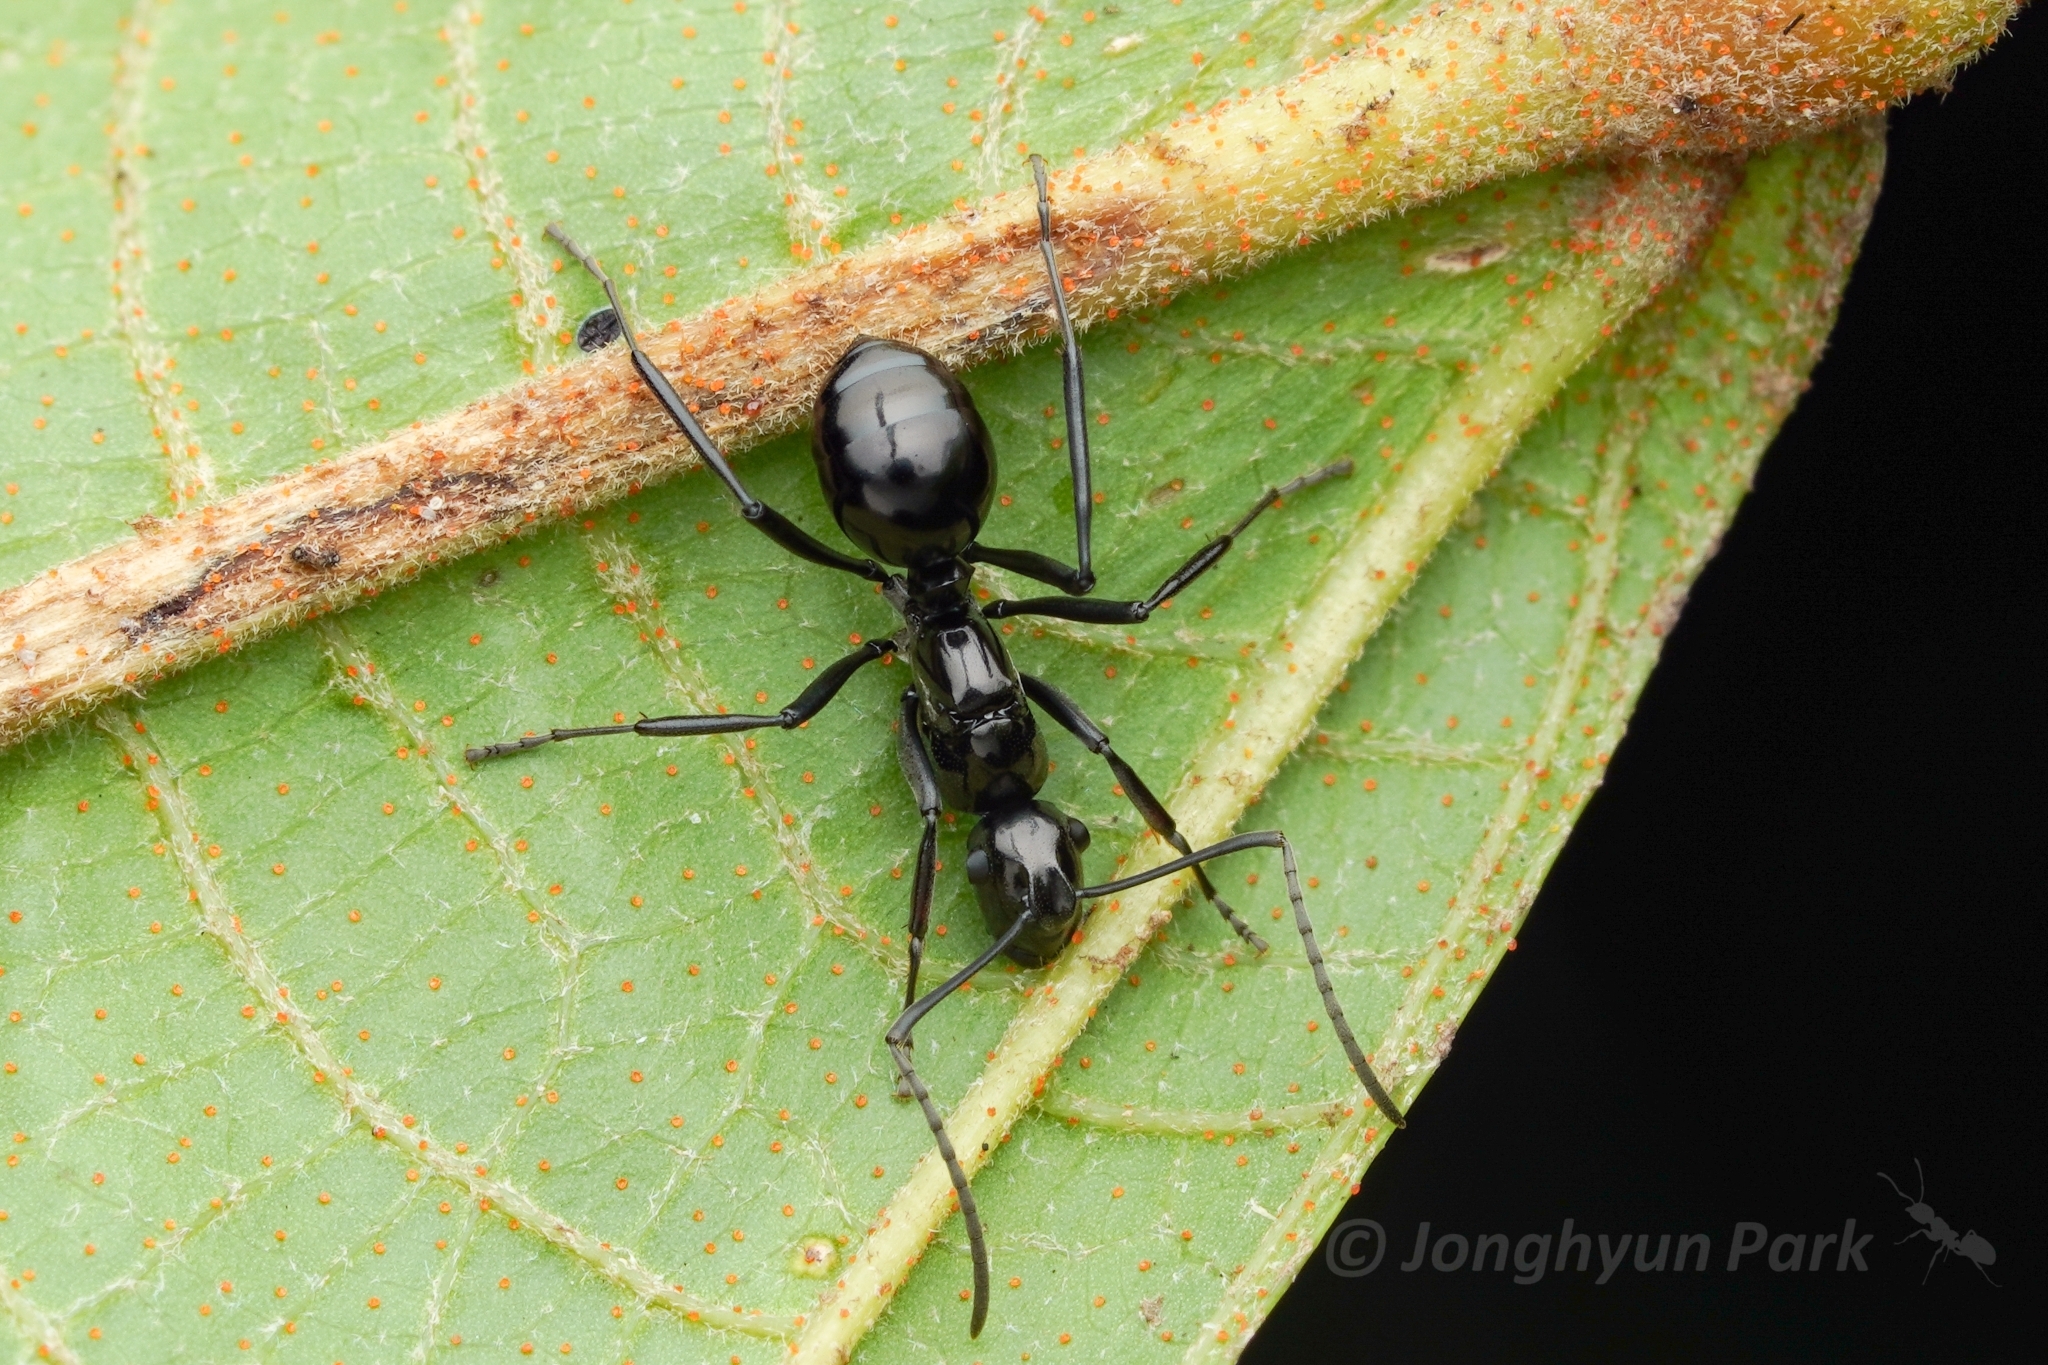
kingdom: Animalia
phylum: Arthropoda
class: Insecta
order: Hymenoptera
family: Formicidae
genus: Polyrhachis
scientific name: Polyrhachis boltoni
